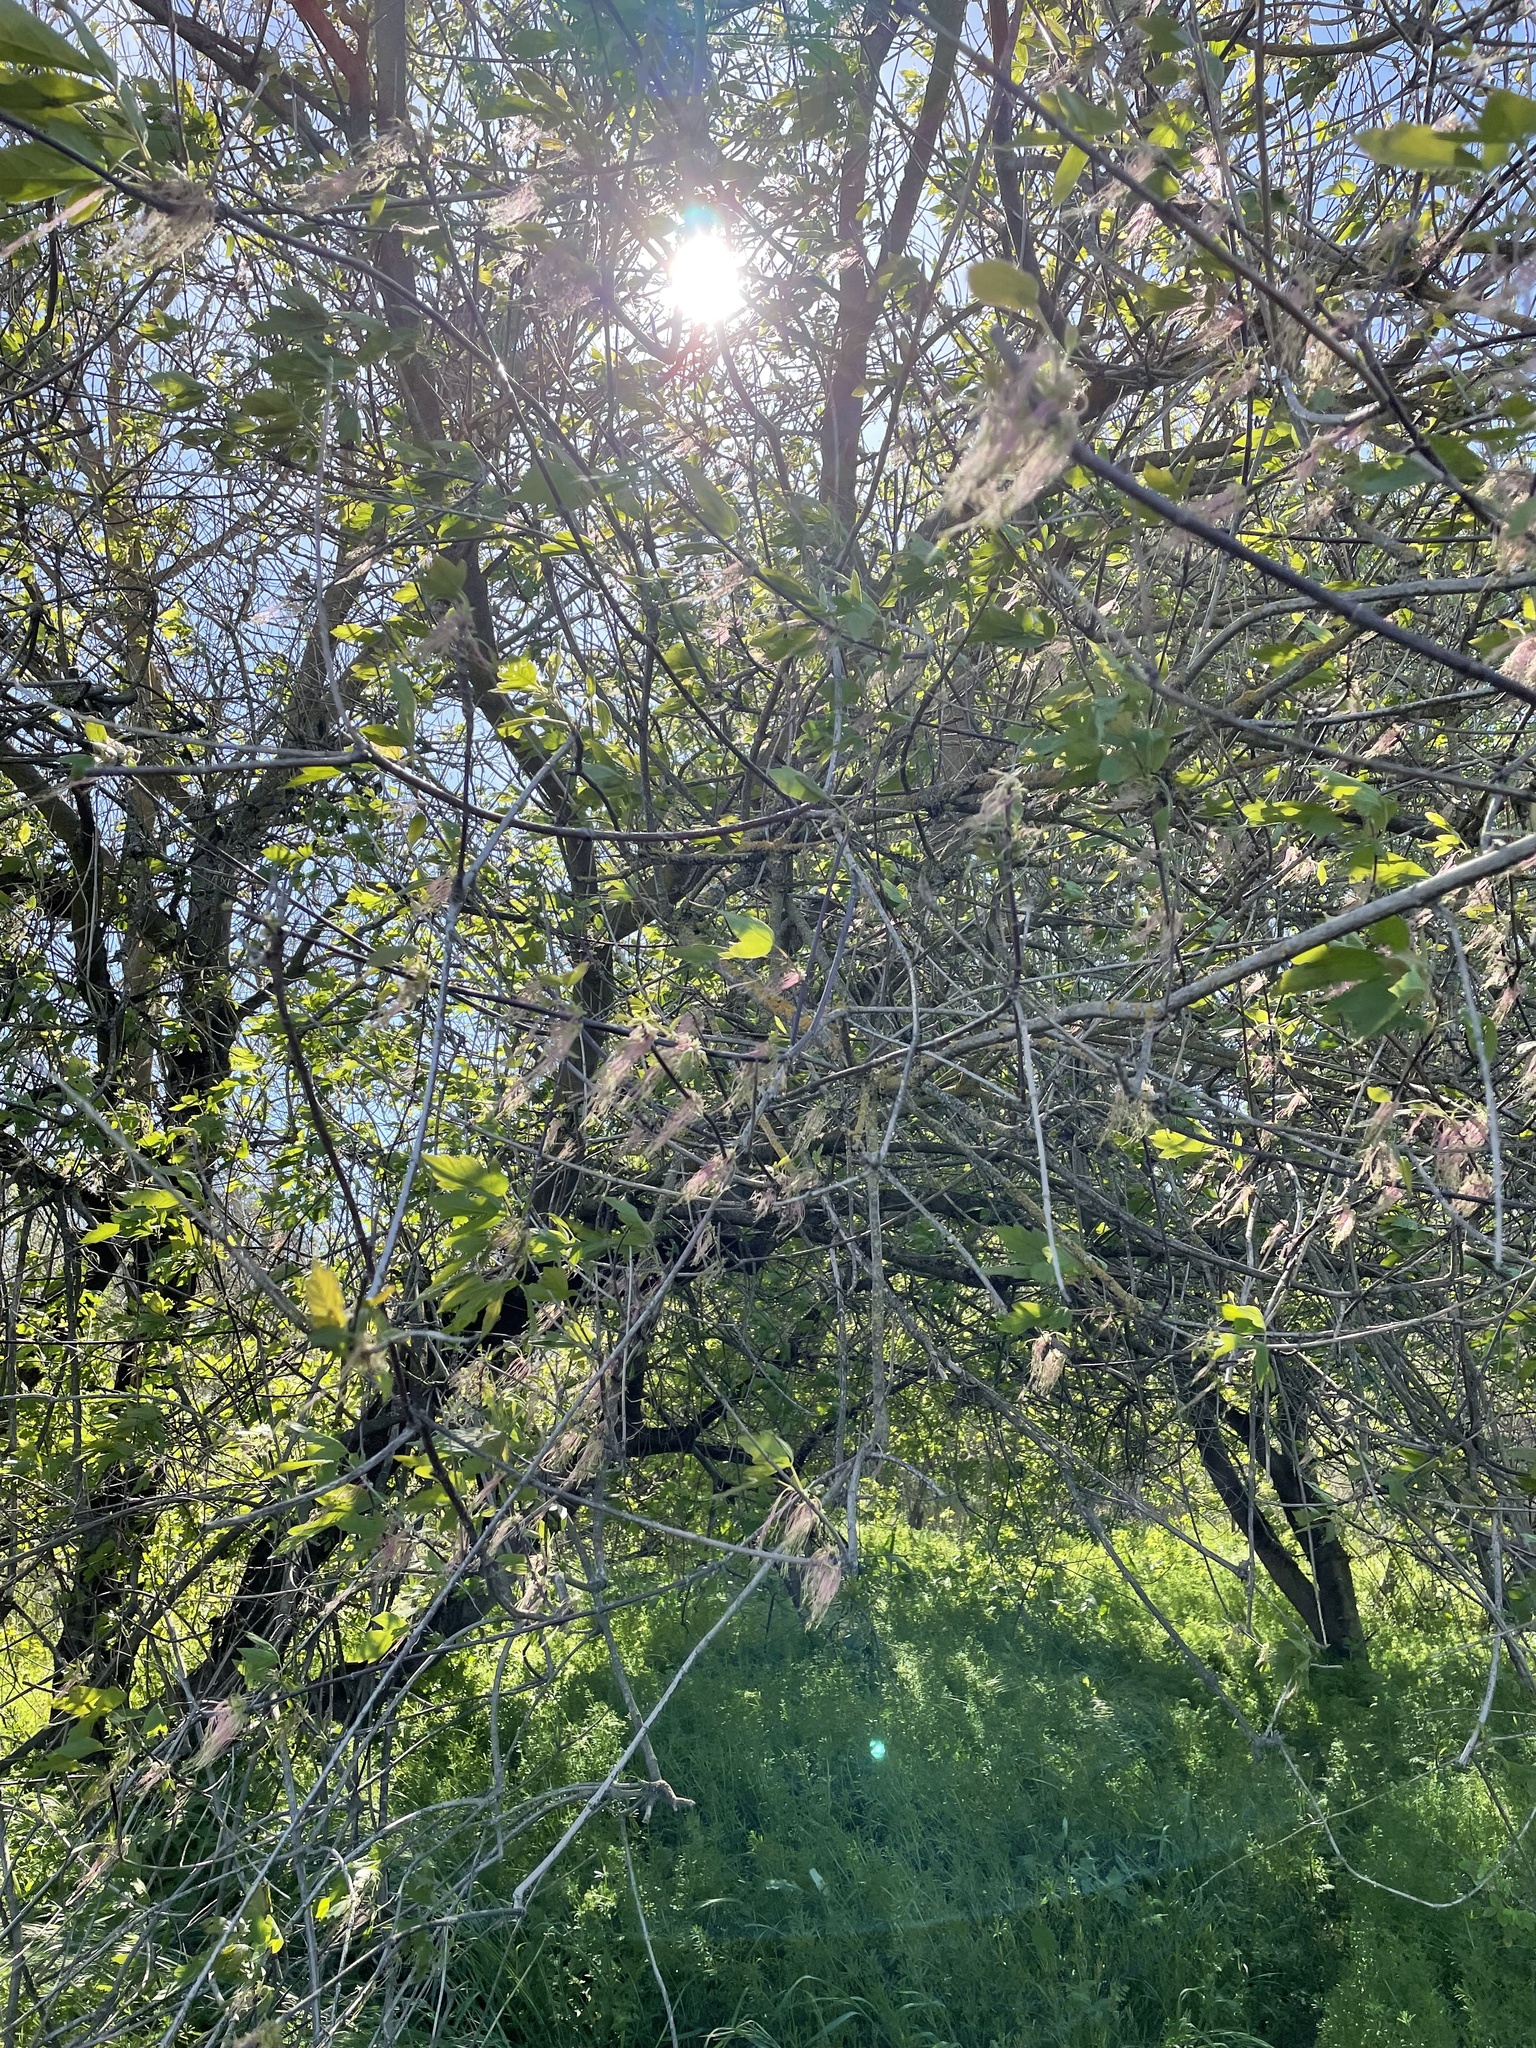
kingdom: Plantae
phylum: Tracheophyta
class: Magnoliopsida
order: Sapindales
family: Sapindaceae
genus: Acer
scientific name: Acer negundo
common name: Ashleaf maple
